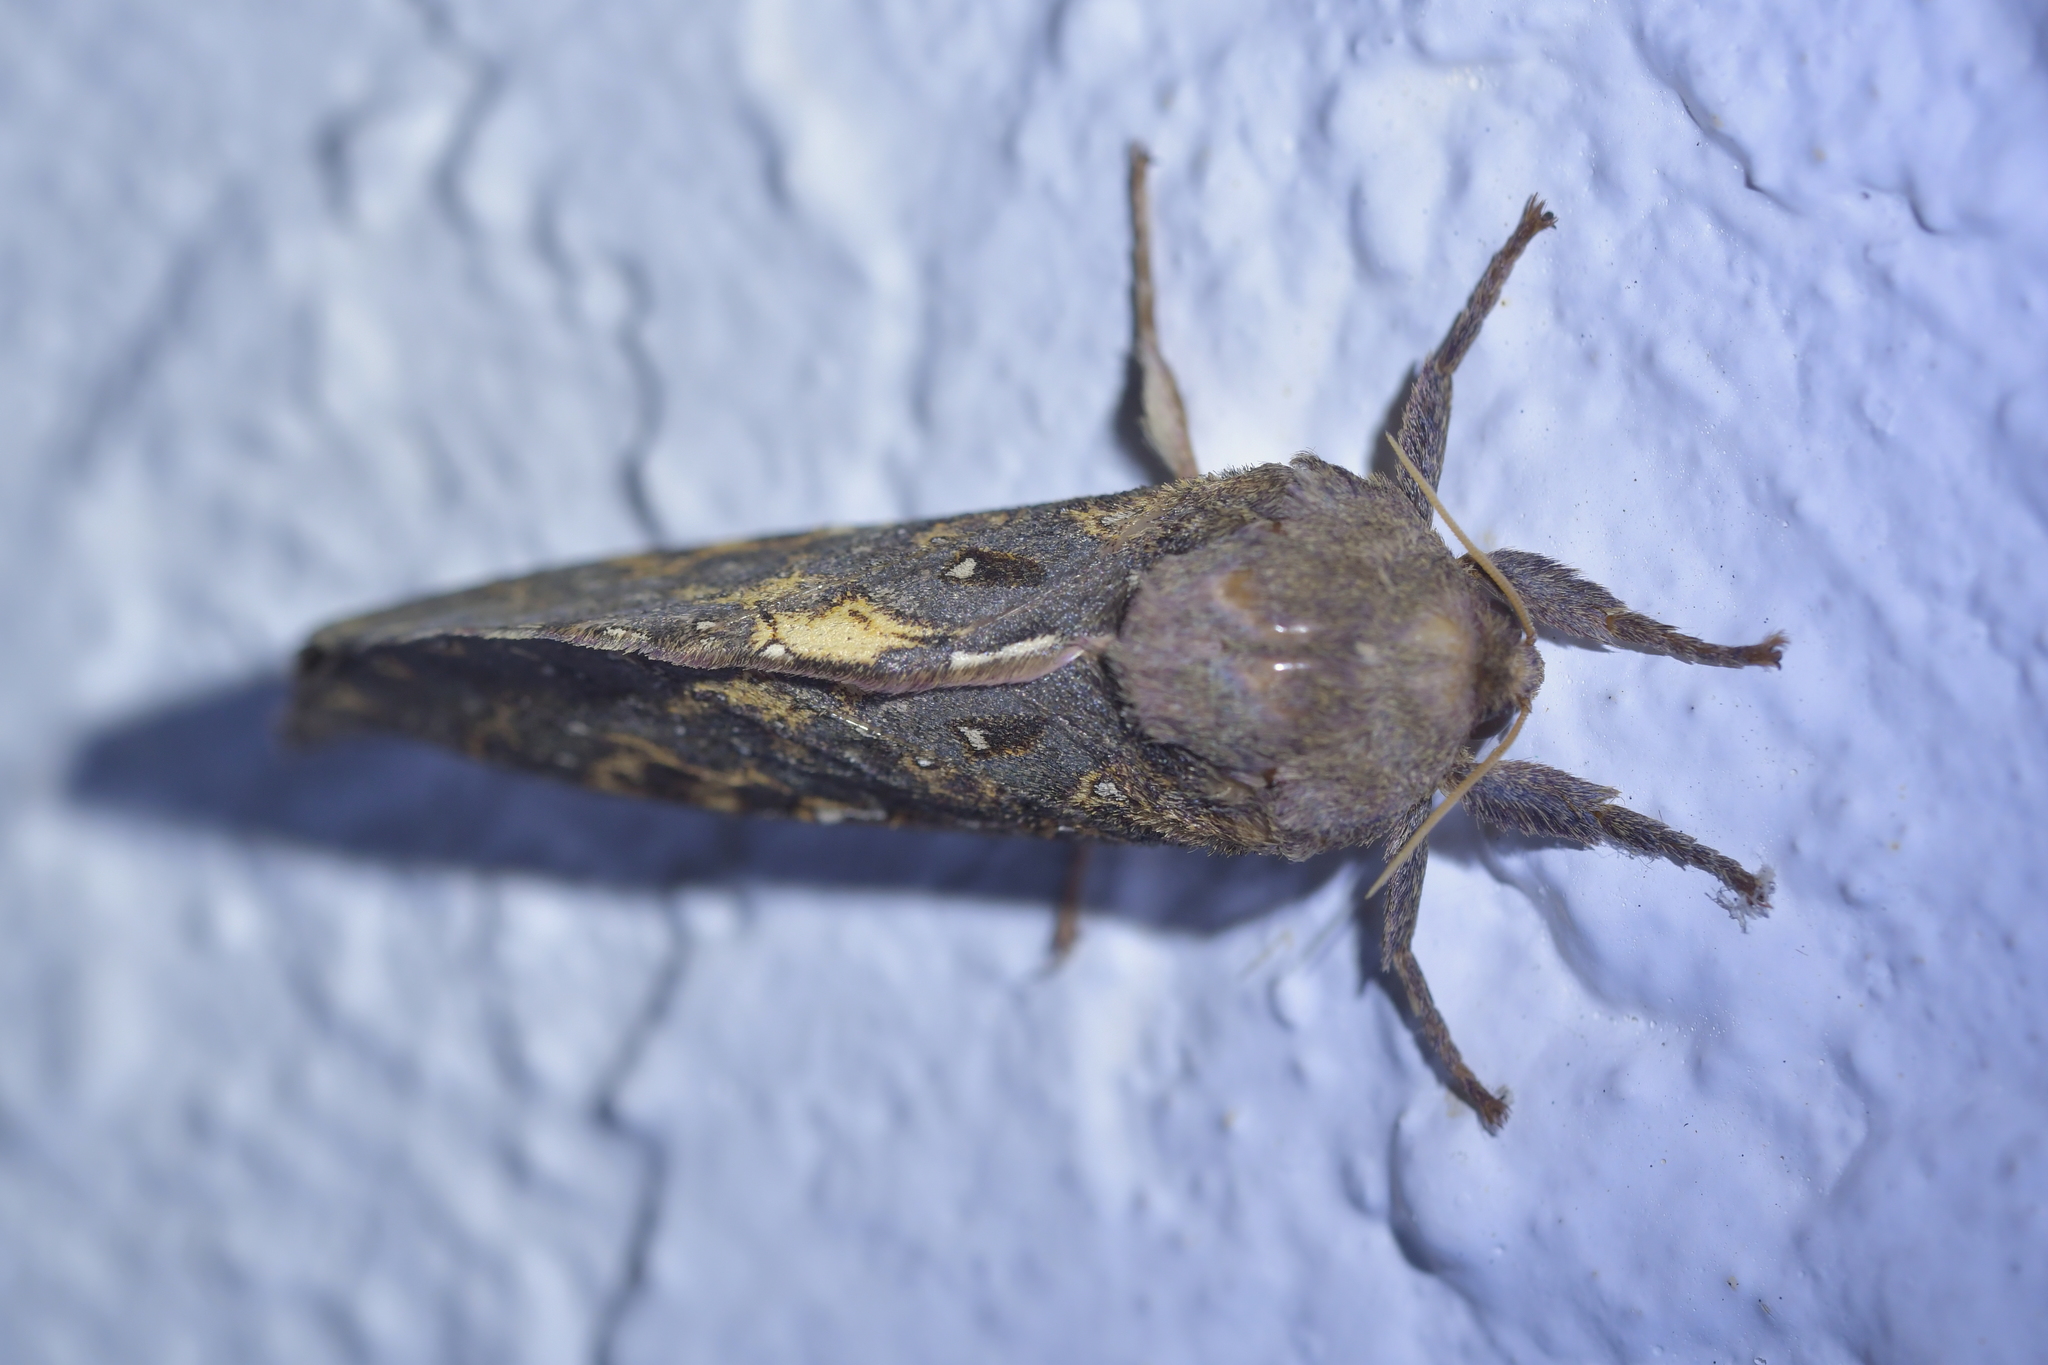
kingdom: Animalia
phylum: Arthropoda
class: Insecta
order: Lepidoptera
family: Hepialidae
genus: Dumbletonius
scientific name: Dumbletonius unimaculata
